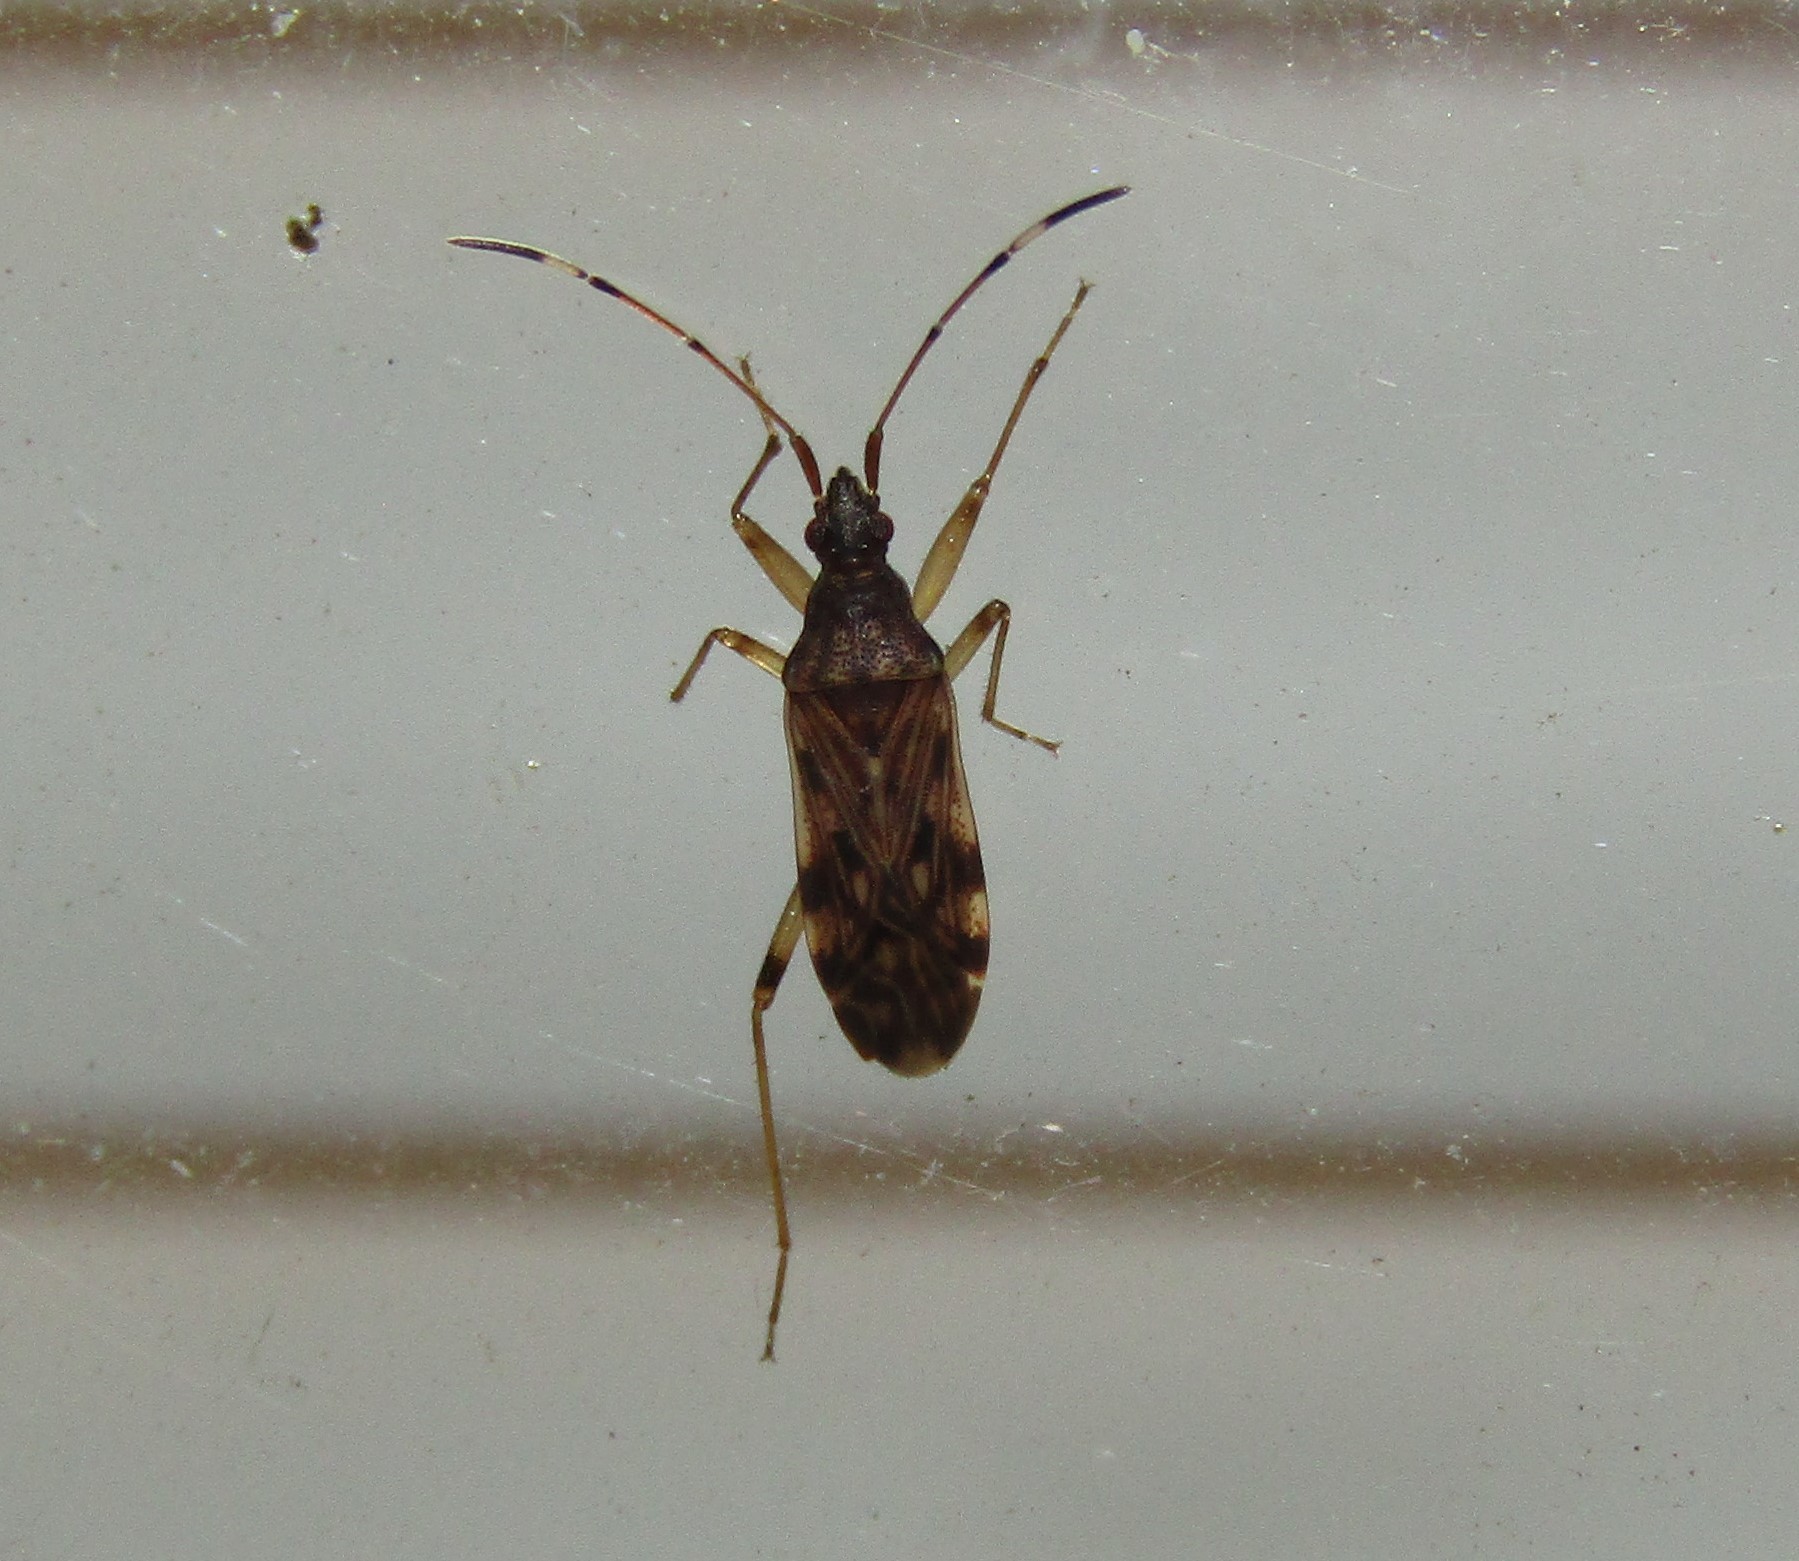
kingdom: Animalia
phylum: Arthropoda
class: Insecta
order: Hemiptera
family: Rhyparochromidae
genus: Ozophora
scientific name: Ozophora picturata
